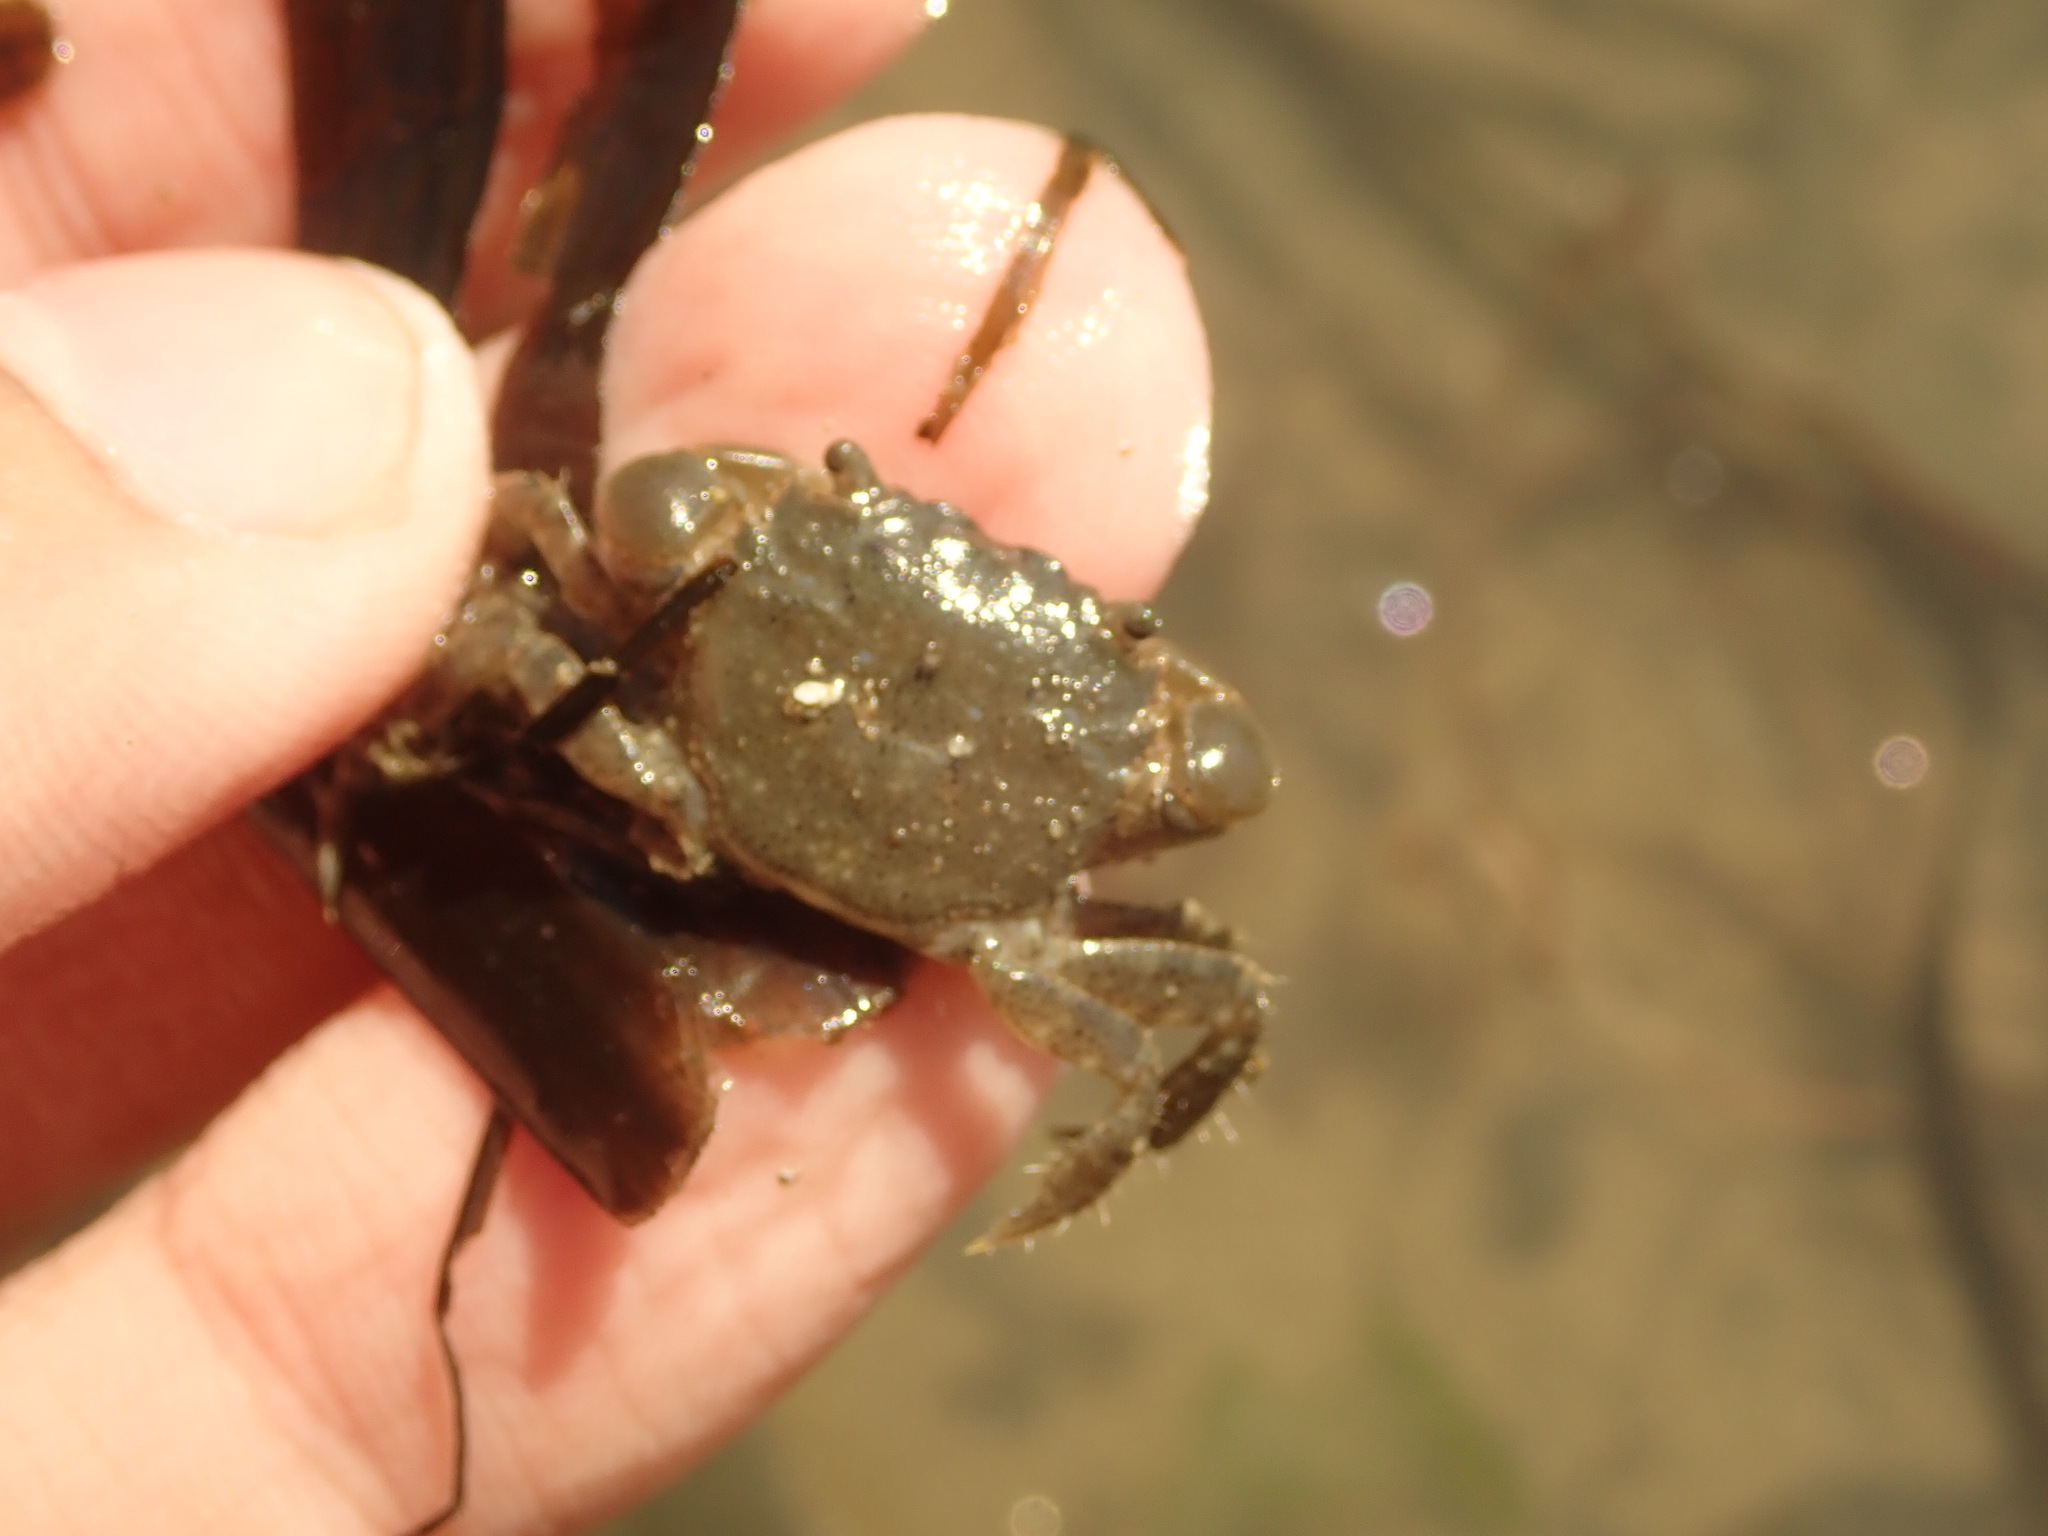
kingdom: Animalia
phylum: Arthropoda
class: Malacostraca
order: Decapoda
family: Varunidae
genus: Hemigrapsus
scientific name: Hemigrapsus oregonensis
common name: Yellow shore crab
